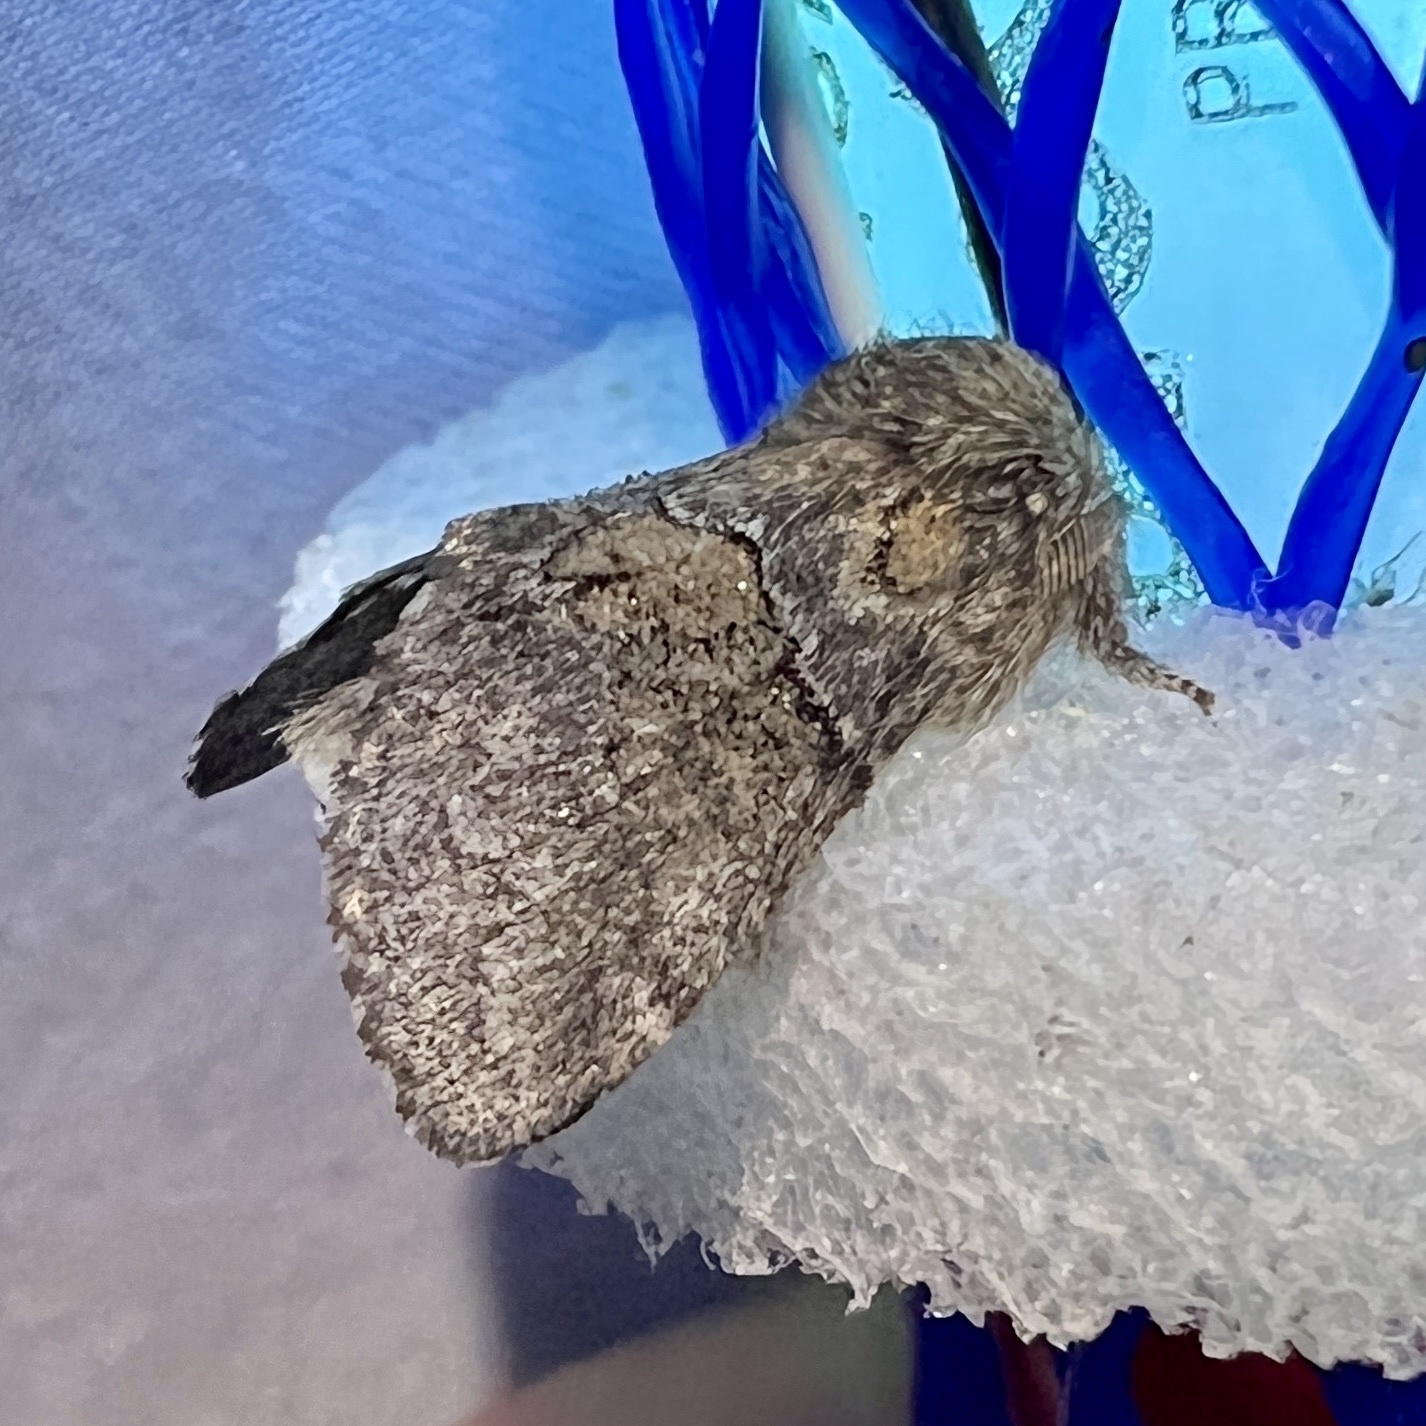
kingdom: Animalia
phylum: Arthropoda
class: Insecta
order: Lepidoptera
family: Notodontidae
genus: Gluphisia
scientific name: Gluphisia septentrionis
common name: Common gluphisia
